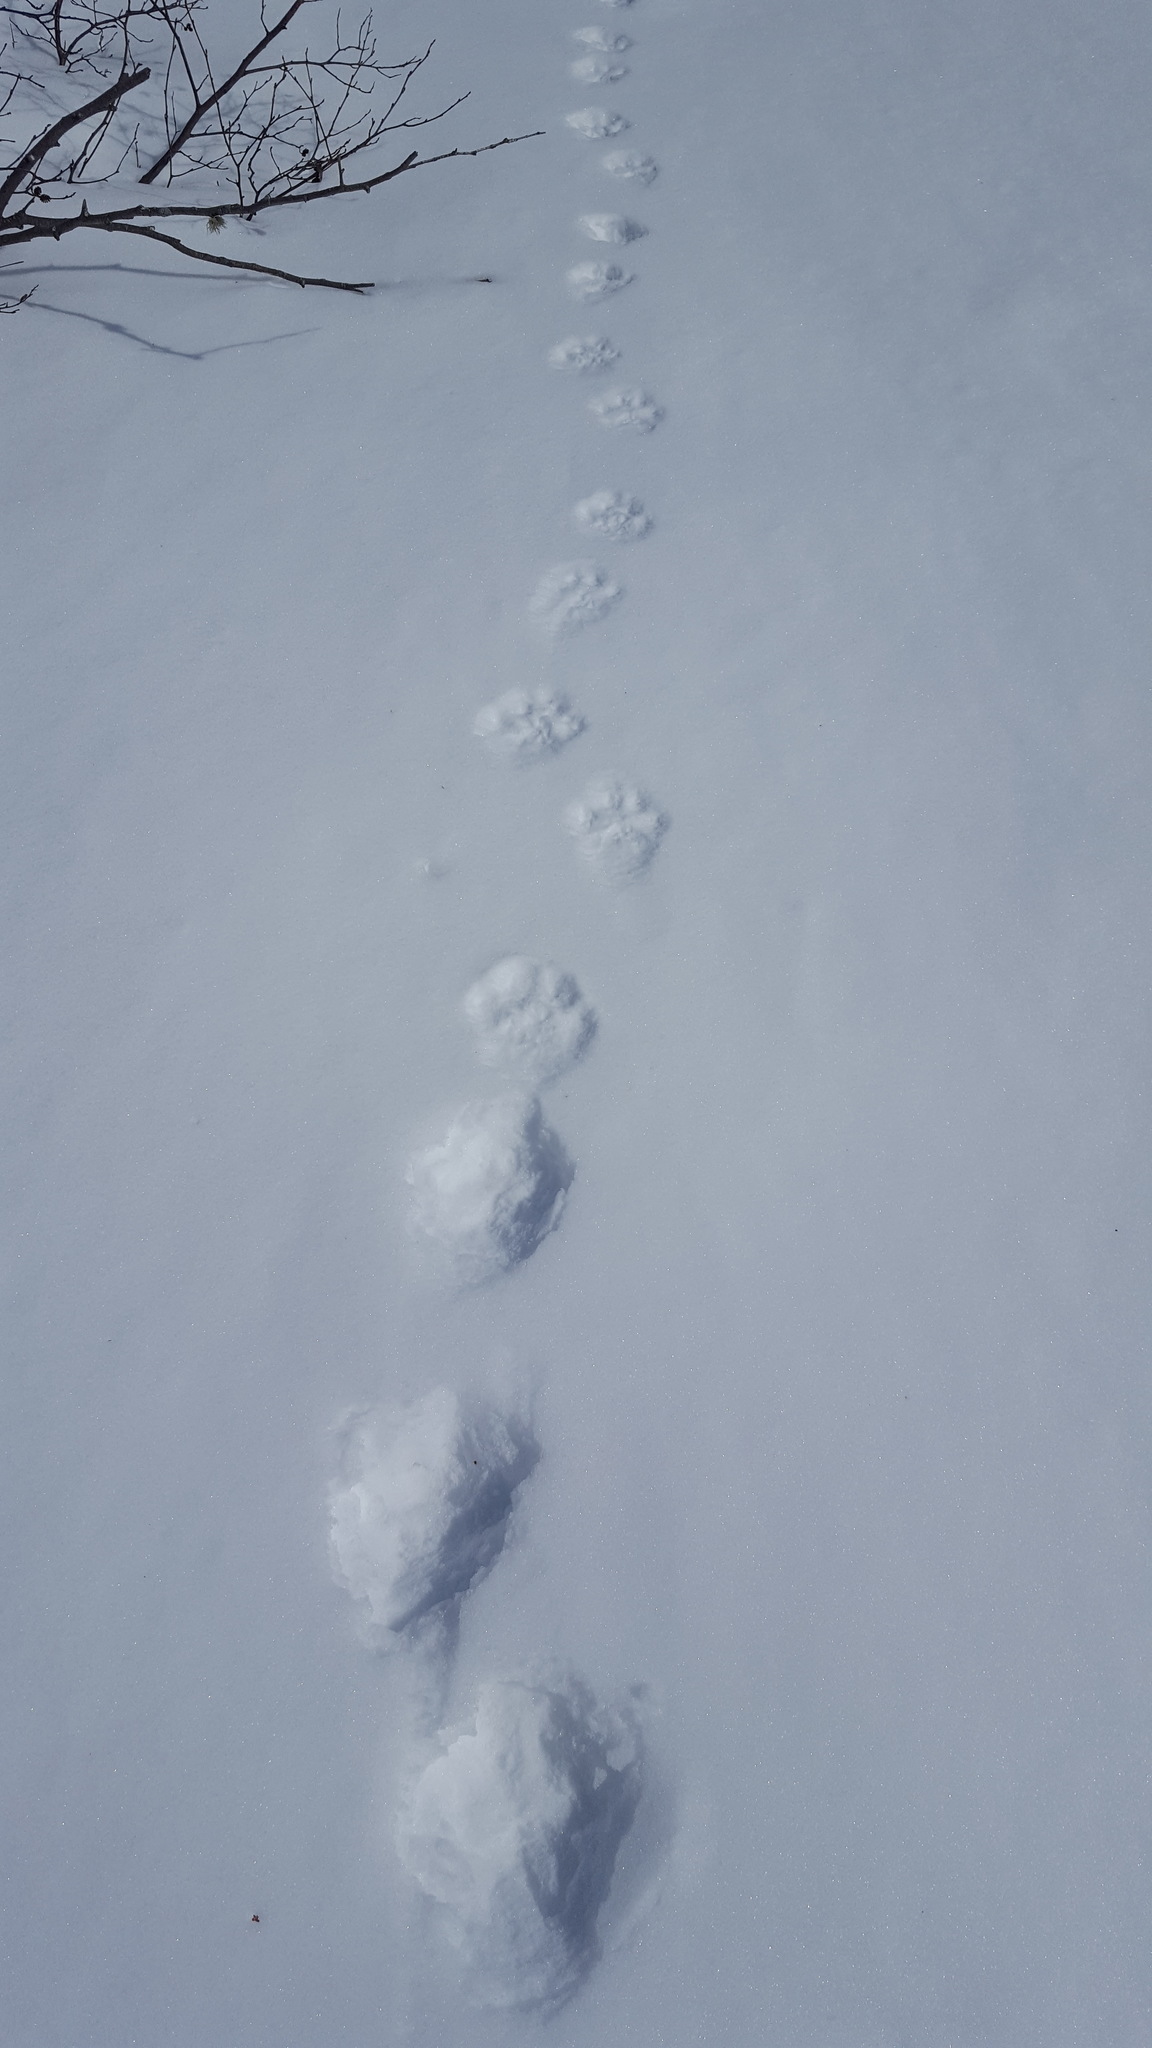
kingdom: Animalia
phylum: Chordata
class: Mammalia
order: Carnivora
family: Felidae
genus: Lynx
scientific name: Lynx canadensis
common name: Canadian lynx
